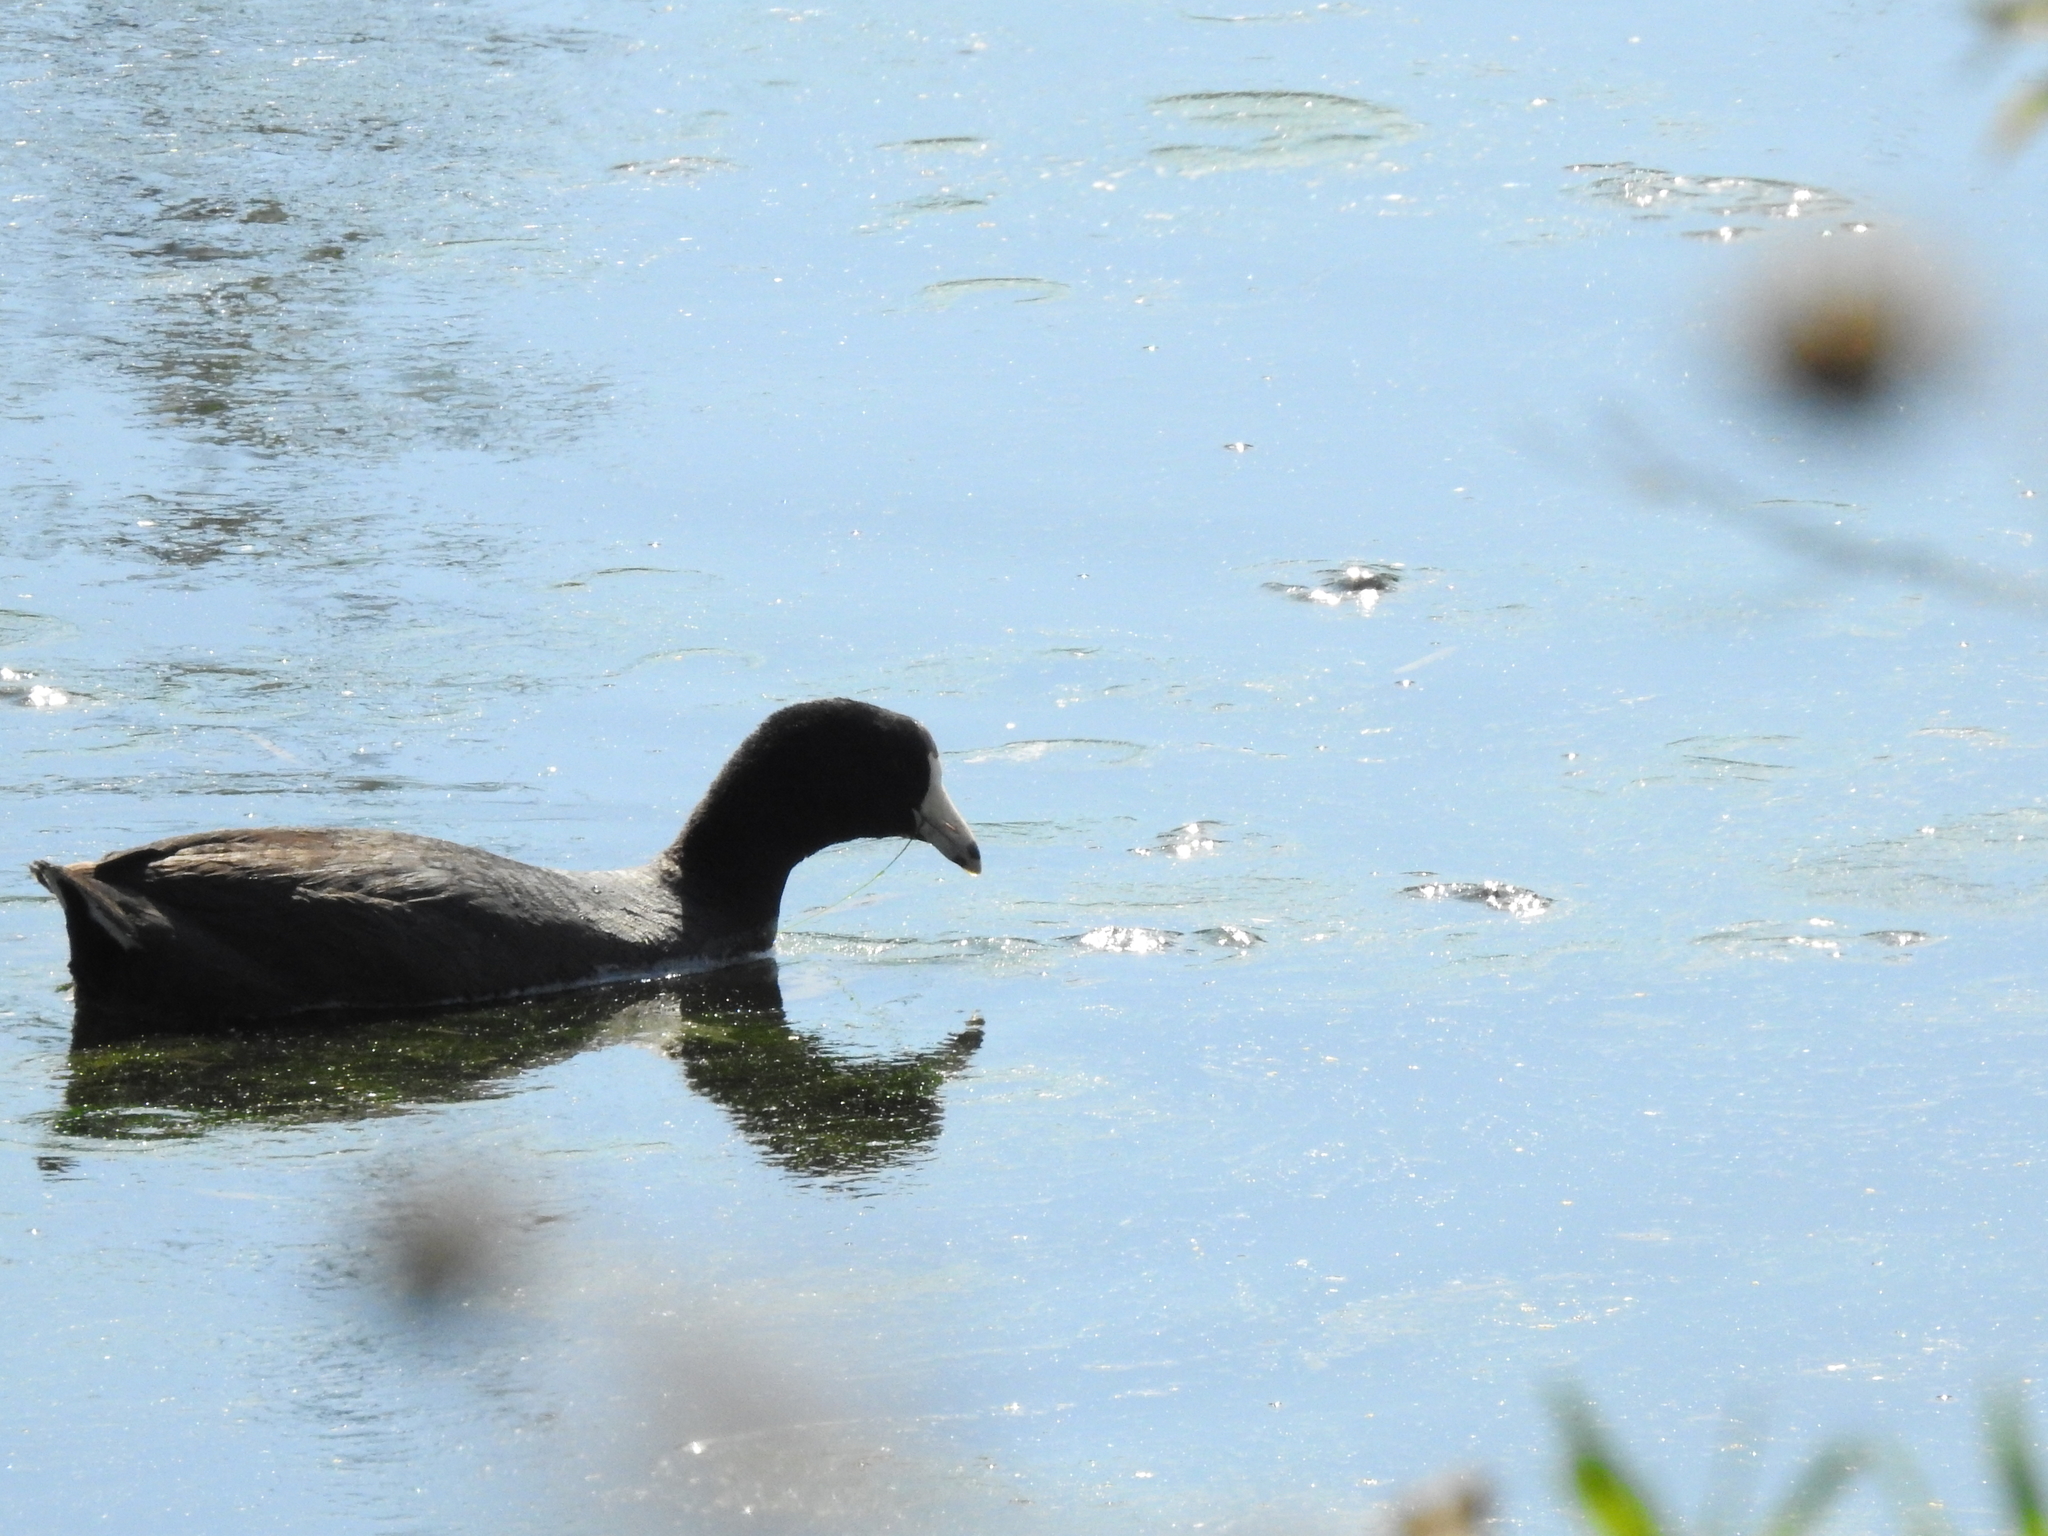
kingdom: Animalia
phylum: Chordata
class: Aves
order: Gruiformes
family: Rallidae
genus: Fulica
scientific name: Fulica americana
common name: American coot
